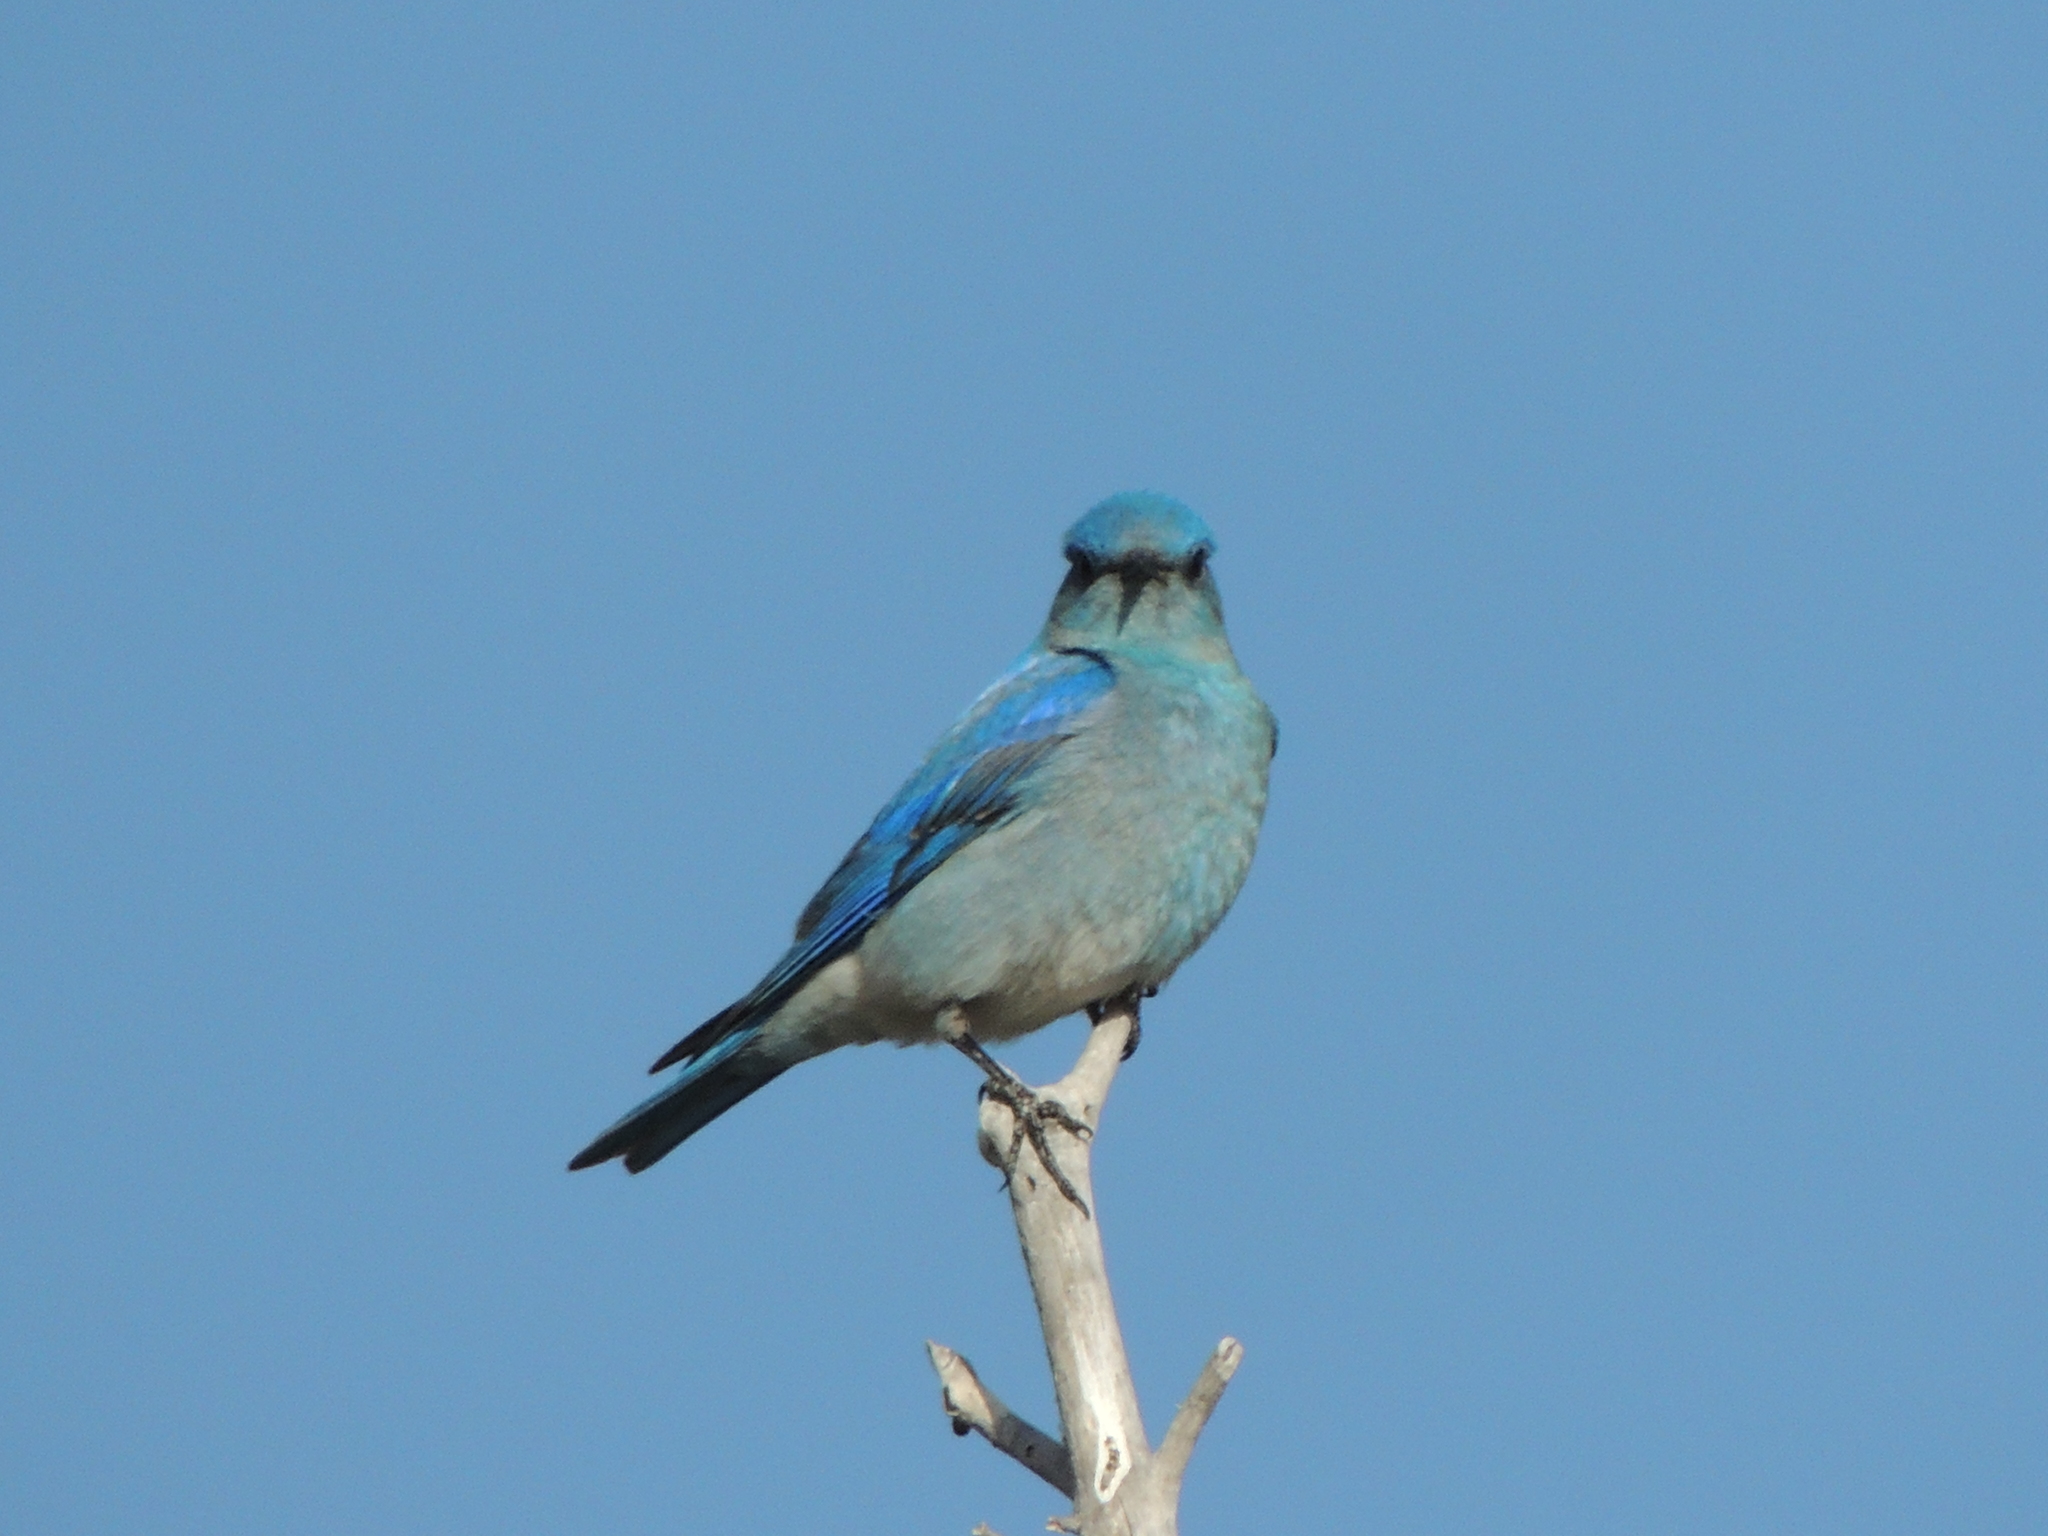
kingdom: Animalia
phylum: Chordata
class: Aves
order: Passeriformes
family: Turdidae
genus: Sialia
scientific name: Sialia currucoides
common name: Mountain bluebird
